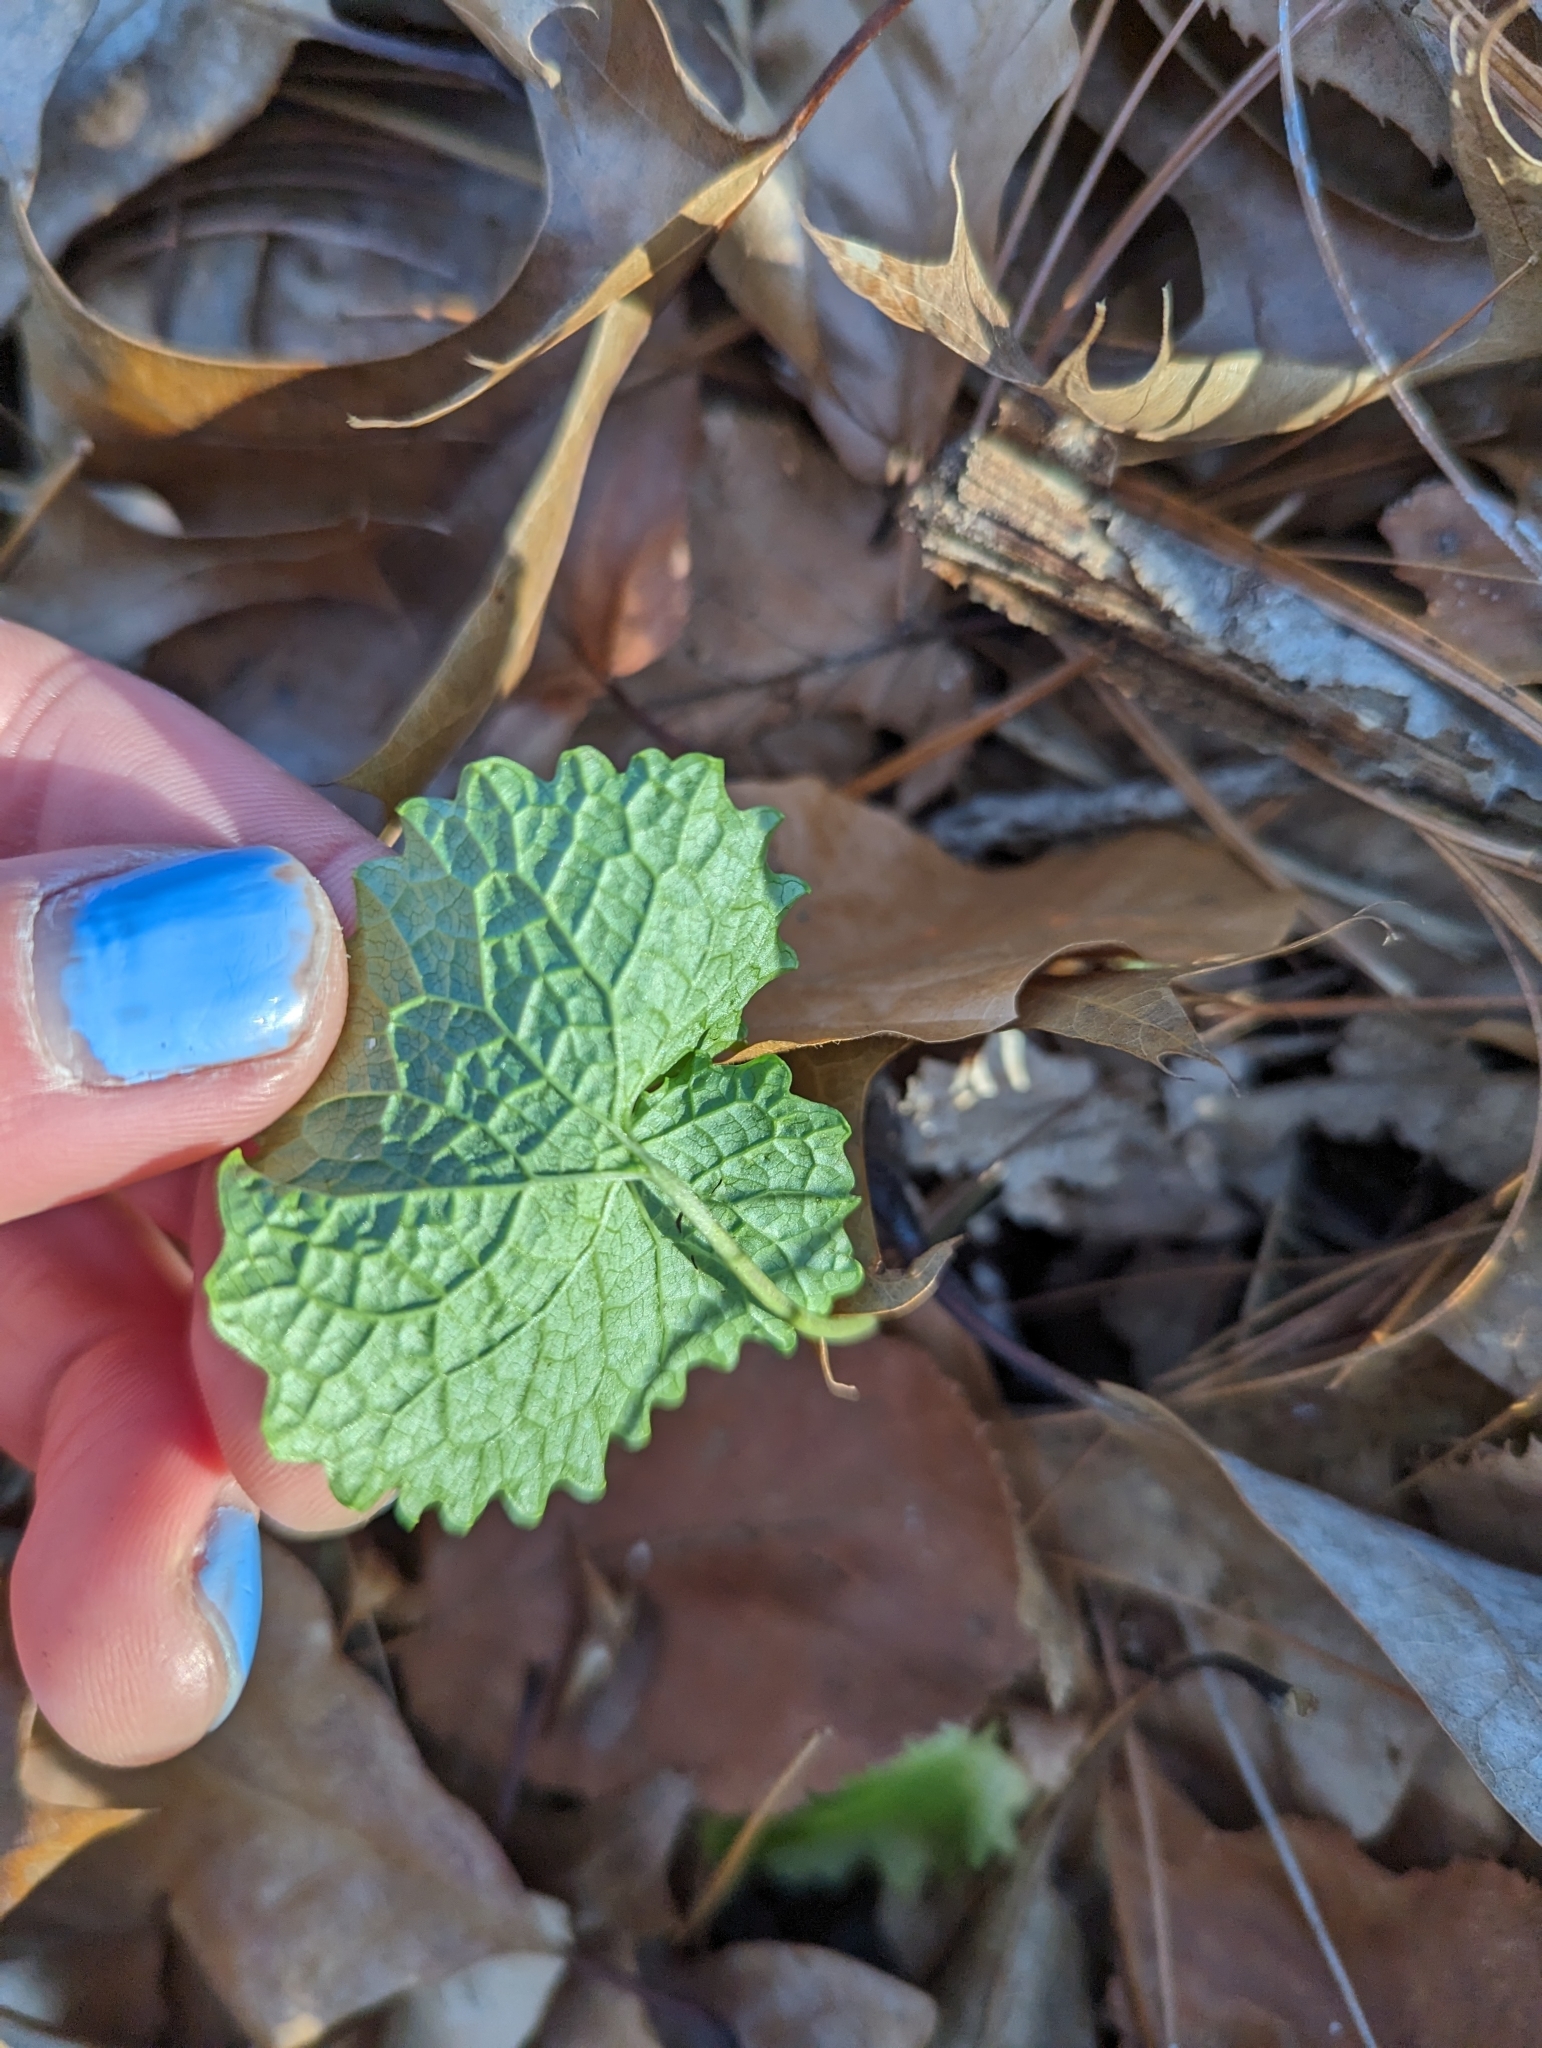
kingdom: Plantae
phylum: Tracheophyta
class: Magnoliopsida
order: Brassicales
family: Brassicaceae
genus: Alliaria
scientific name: Alliaria petiolata
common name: Garlic mustard
